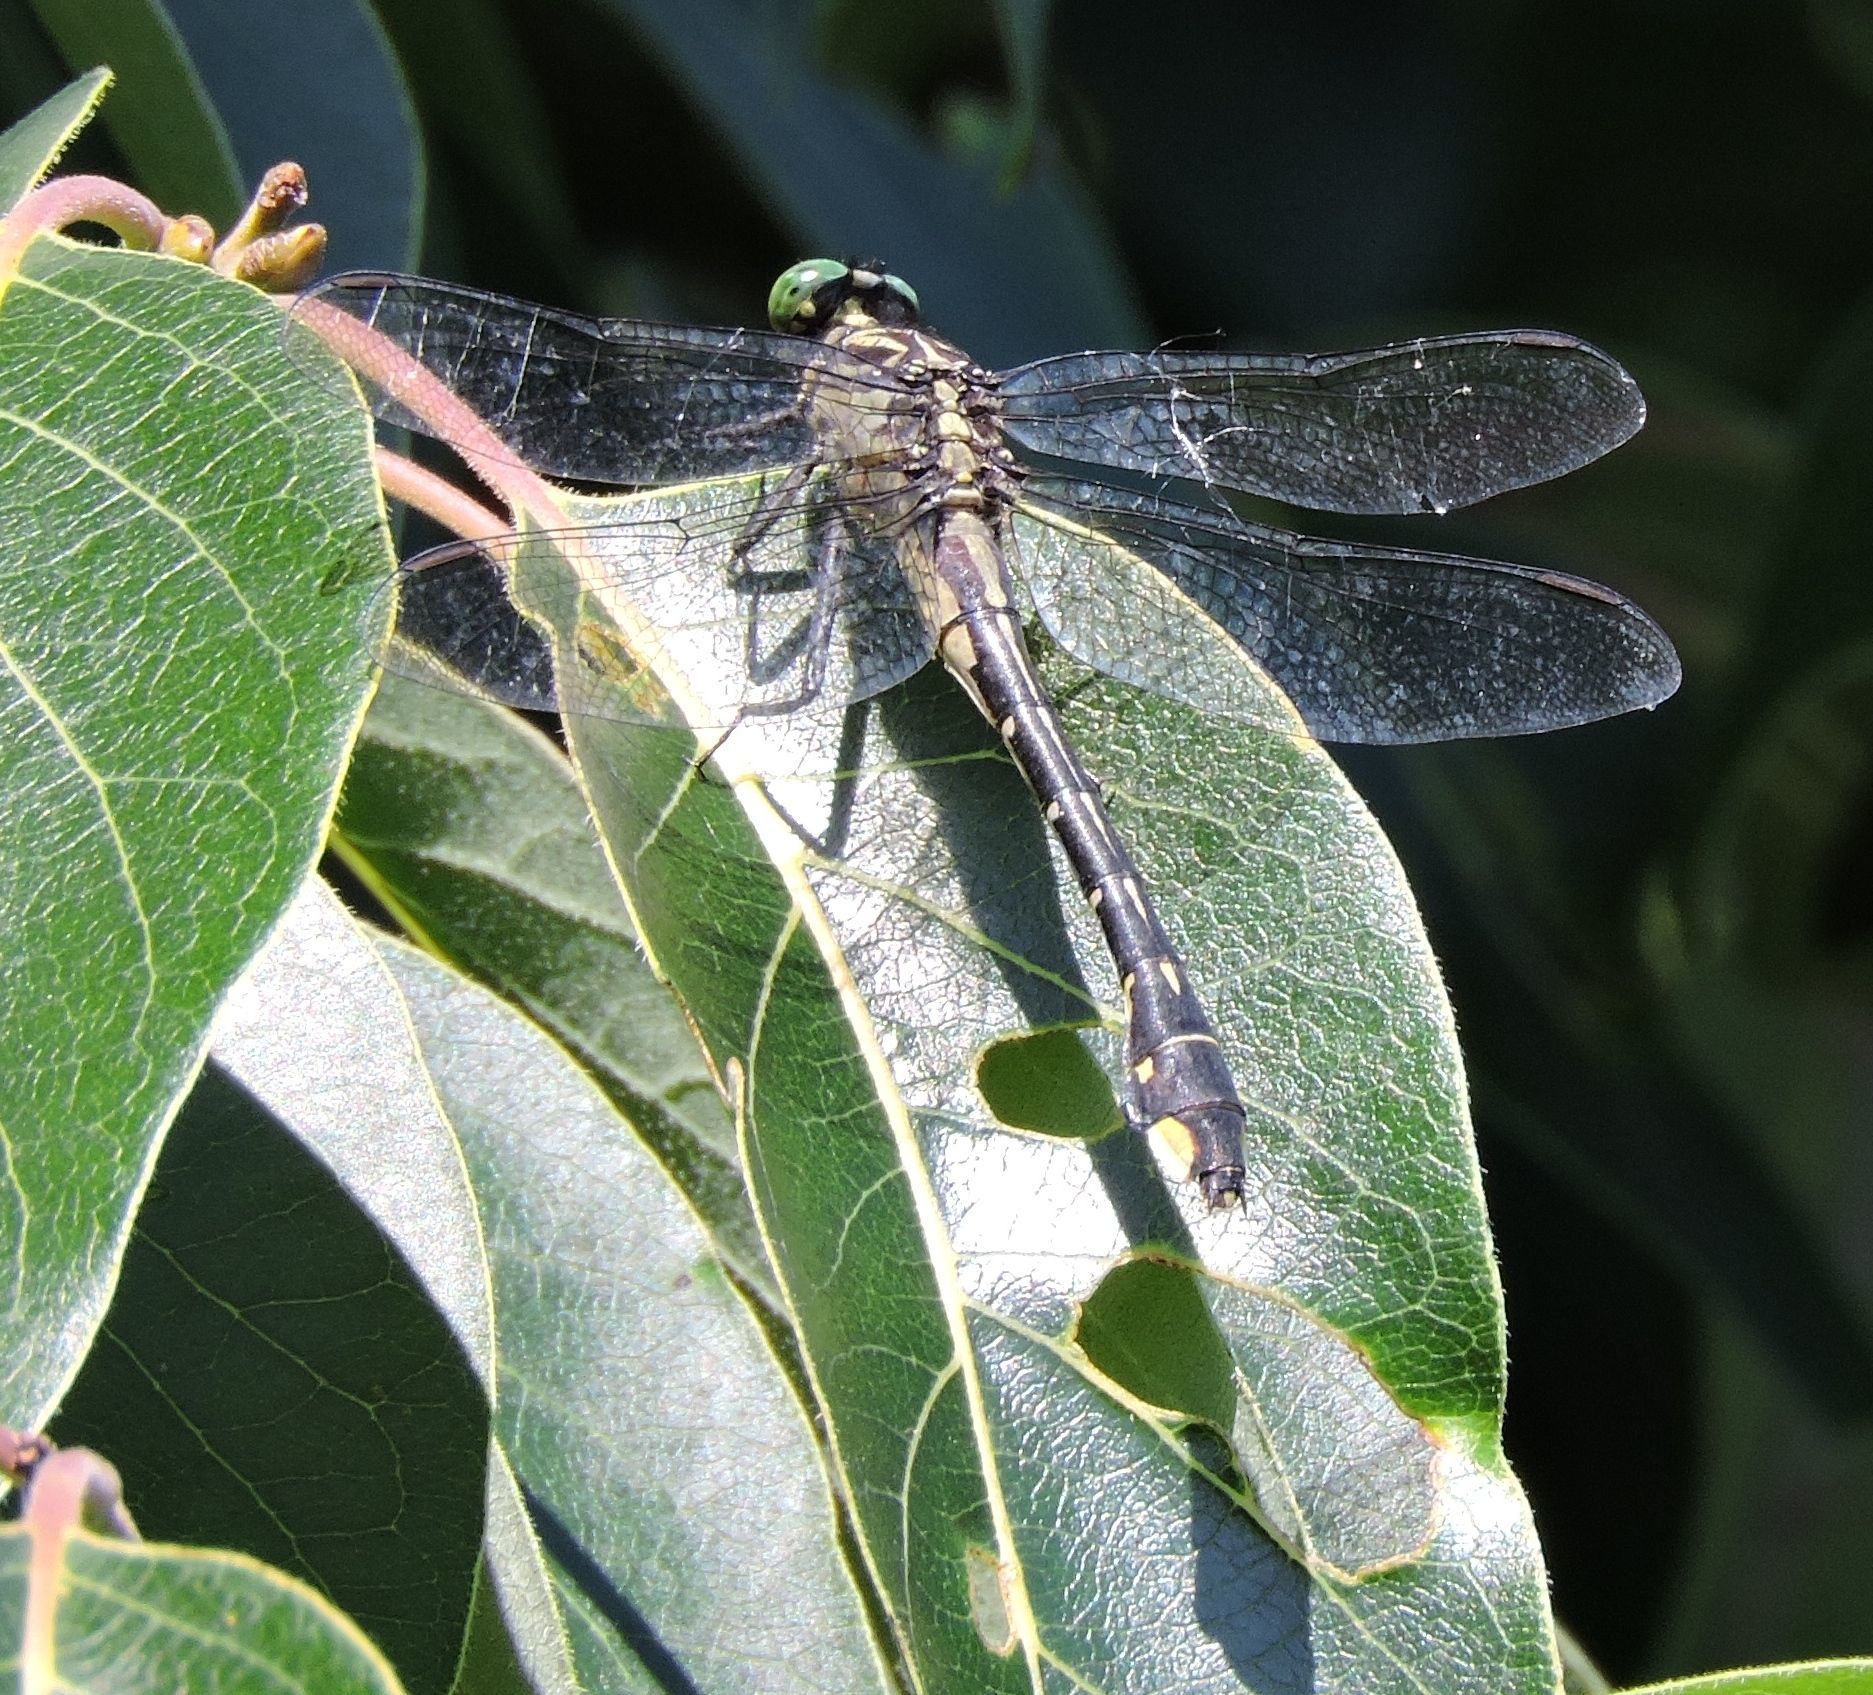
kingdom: Animalia
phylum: Arthropoda
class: Insecta
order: Odonata
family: Gomphidae
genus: Gomphurus
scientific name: Gomphurus vastus
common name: Cobra clubtail
